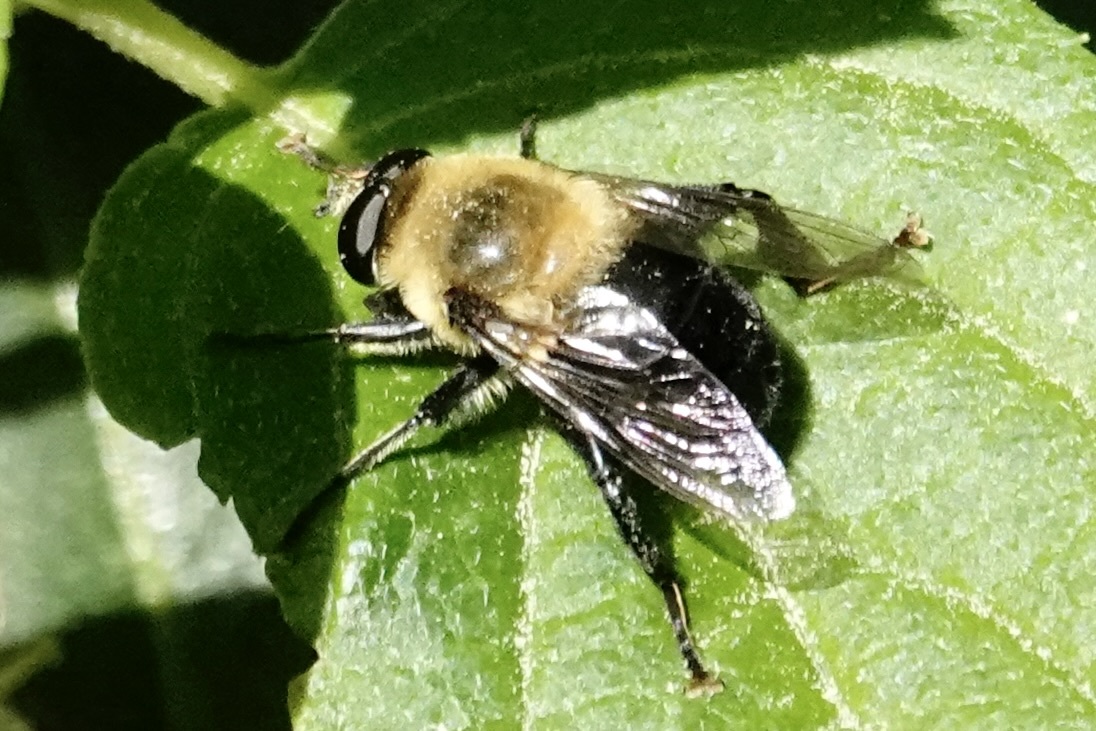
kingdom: Animalia
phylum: Arthropoda
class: Insecta
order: Diptera
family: Syrphidae
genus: Imatisma
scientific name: Imatisma bautias
